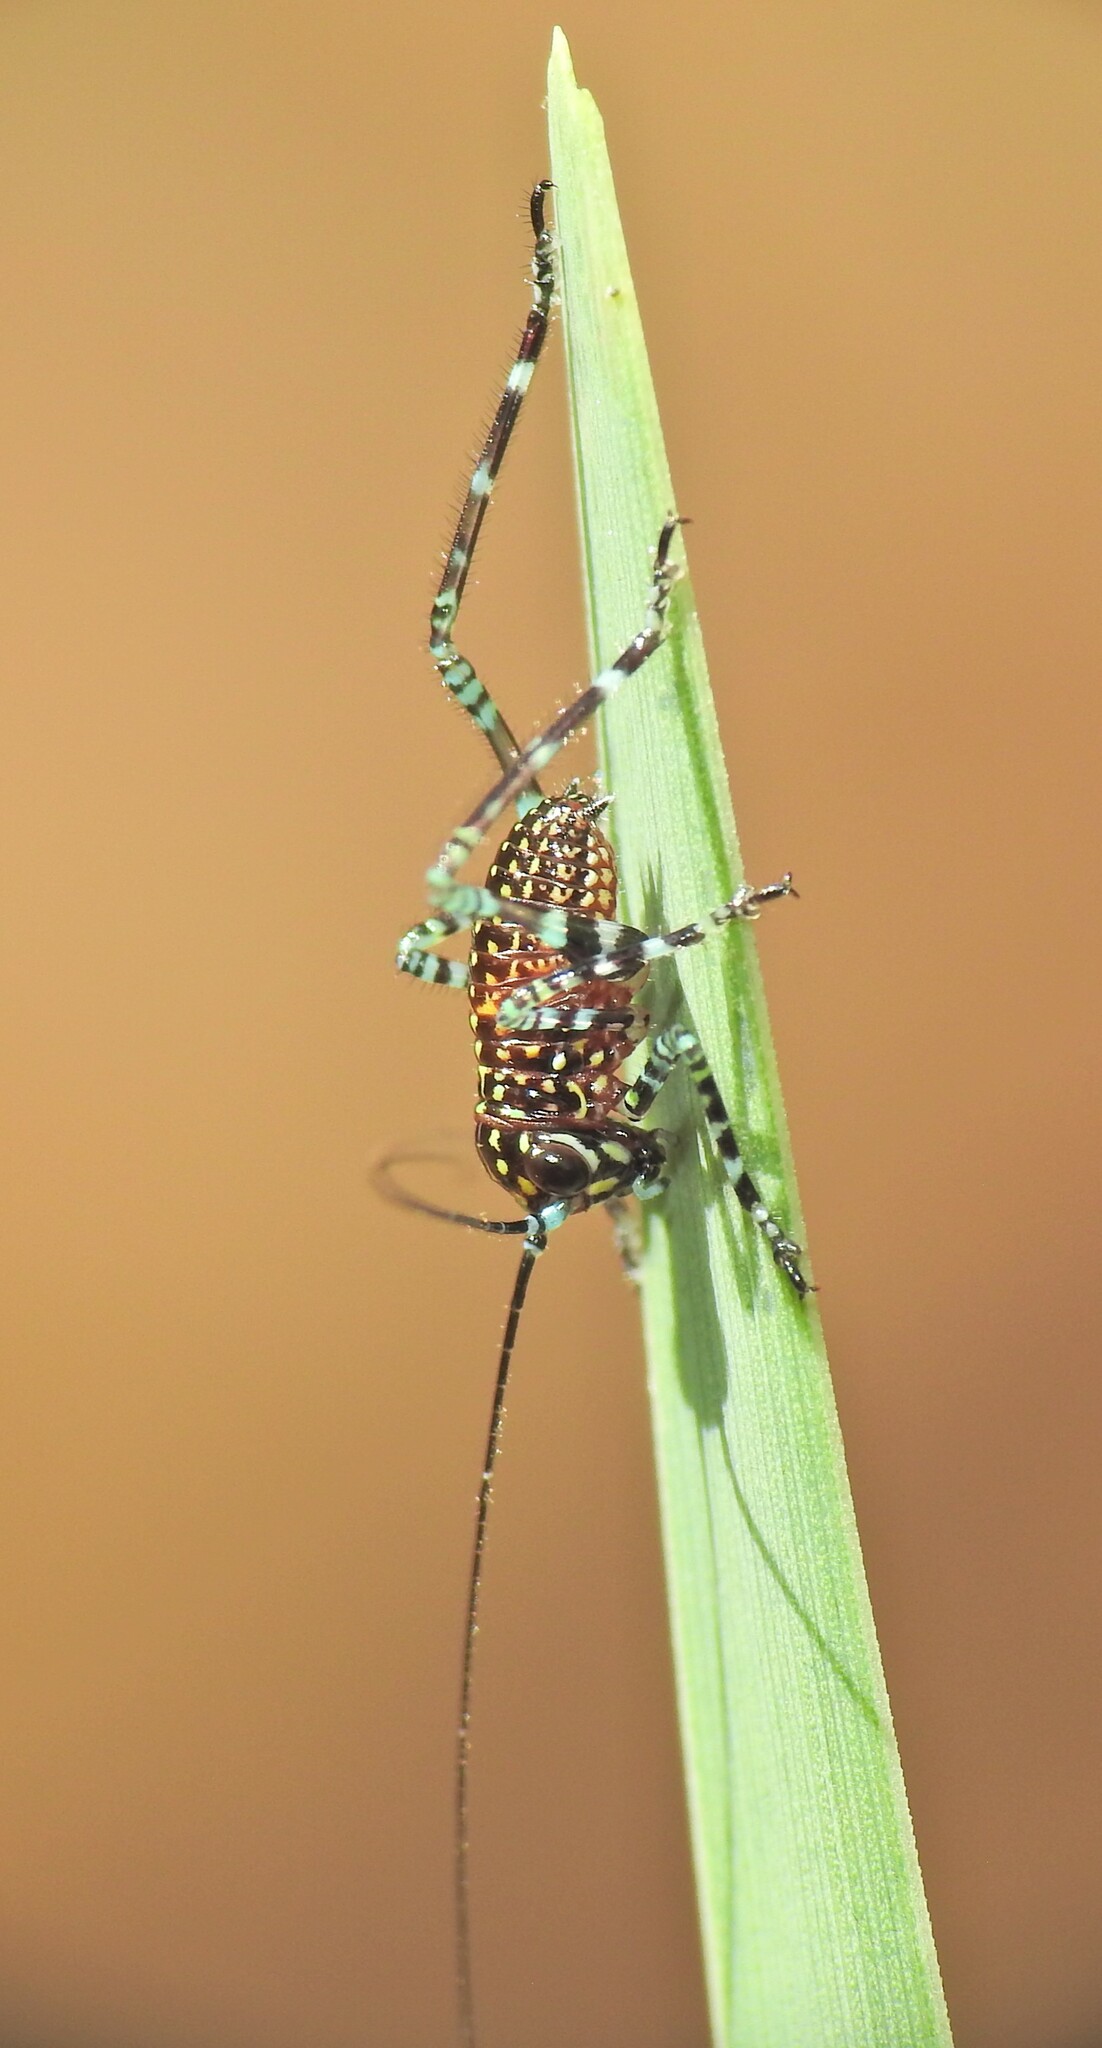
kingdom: Animalia
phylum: Arthropoda
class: Insecta
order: Orthoptera
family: Tettigoniidae
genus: Ozphyllum
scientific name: Ozphyllum naskreckii
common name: Neskrecki's bush katydid
